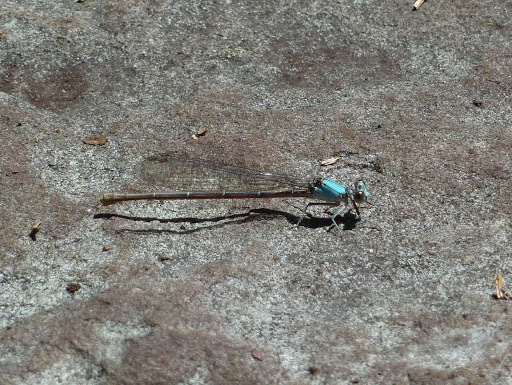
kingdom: Animalia
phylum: Arthropoda
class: Insecta
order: Odonata
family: Coenagrionidae
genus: Argia
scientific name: Argia moesta
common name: Powdered dancer
